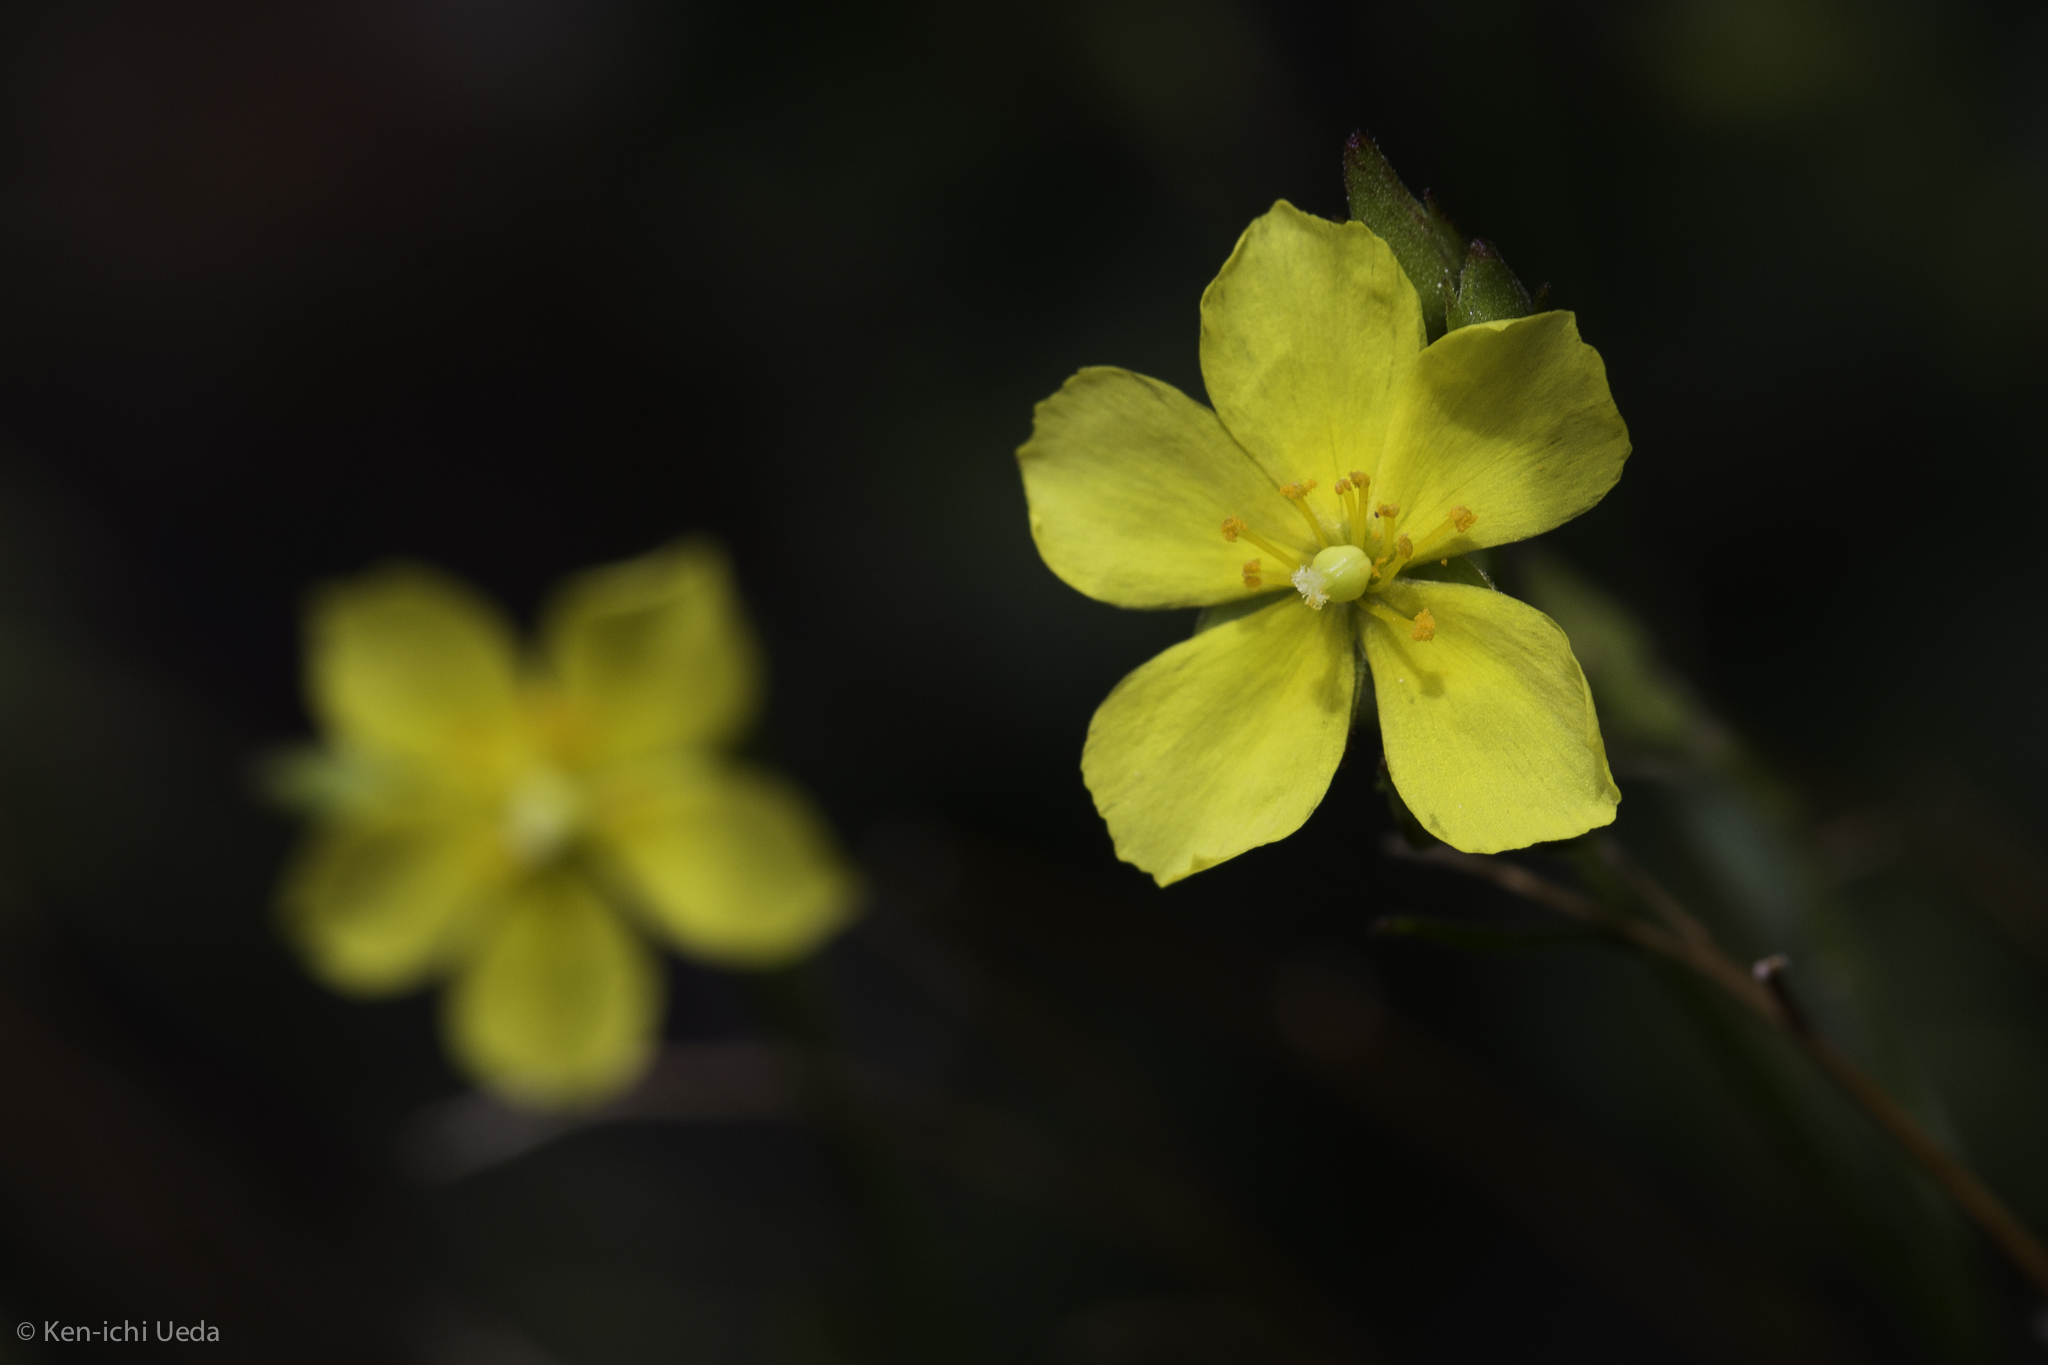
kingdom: Plantae
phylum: Tracheophyta
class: Magnoliopsida
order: Malvales
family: Cistaceae
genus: Crocanthemum
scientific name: Crocanthemum scoparium
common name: Broom-rose
